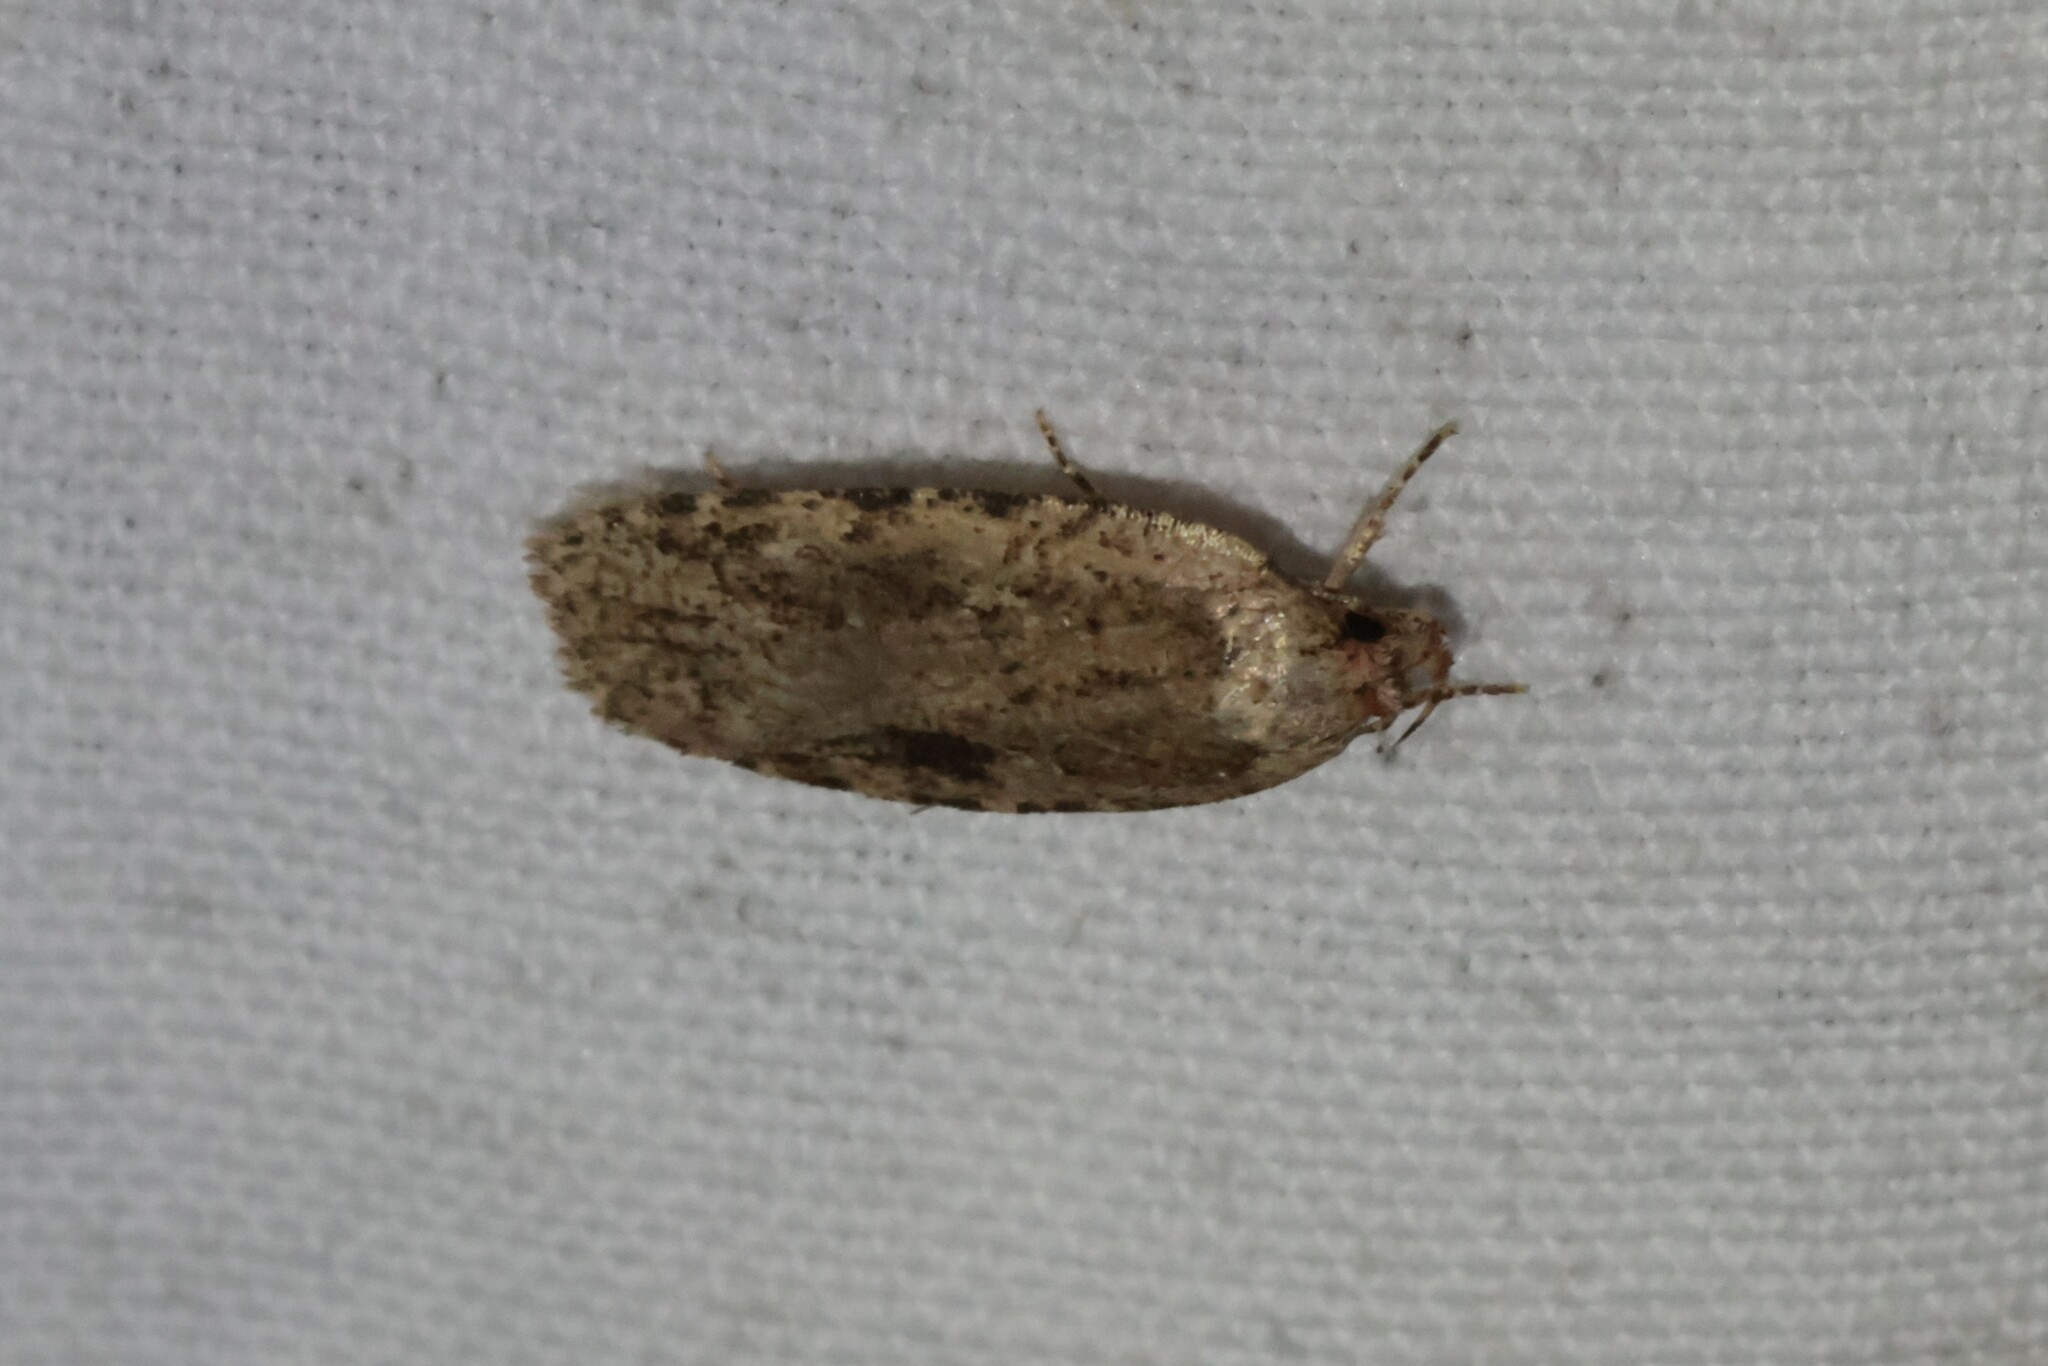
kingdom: Animalia
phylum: Arthropoda
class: Insecta
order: Lepidoptera
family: Depressariidae
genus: Agonopterix
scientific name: Agonopterix pulvipennella
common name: Goldenrod leafffolder
